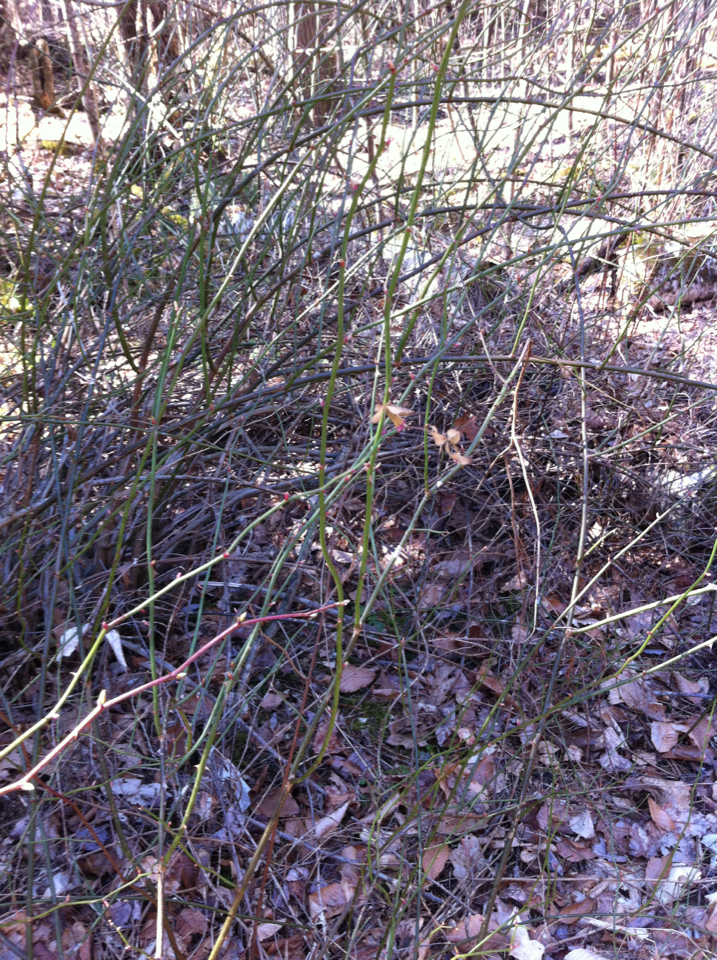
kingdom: Plantae
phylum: Tracheophyta
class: Magnoliopsida
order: Rosales
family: Rosaceae
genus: Rosa
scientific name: Rosa multiflora
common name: Multiflora rose
